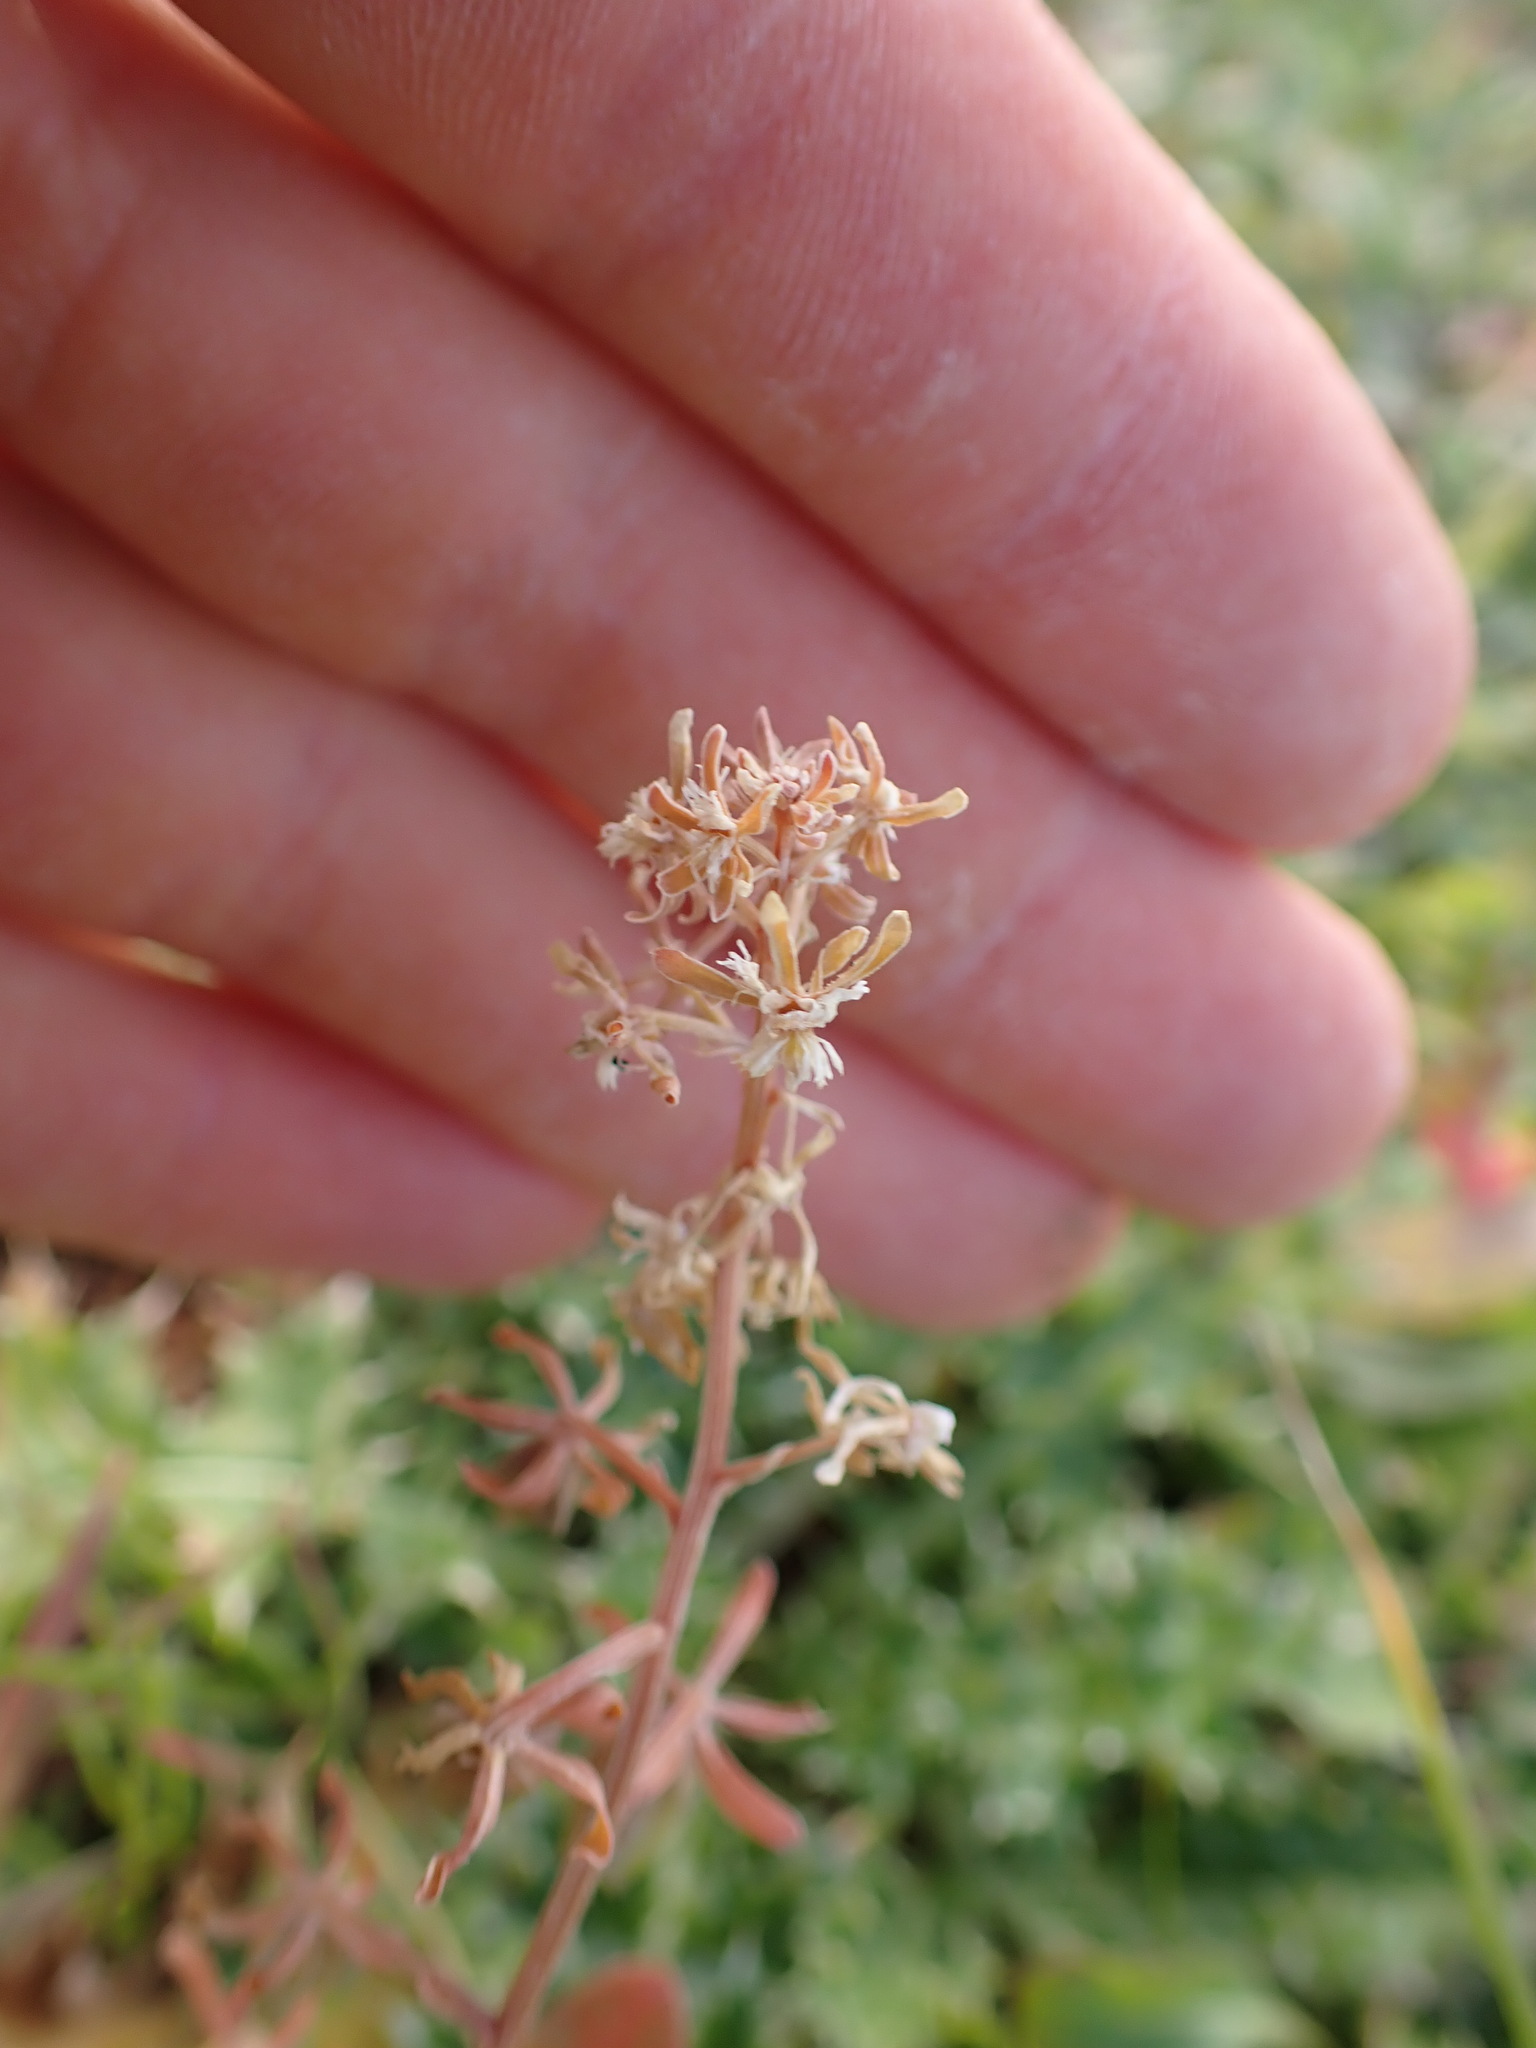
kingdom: Plantae
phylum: Tracheophyta
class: Magnoliopsida
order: Brassicales
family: Resedaceae
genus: Reseda
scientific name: Reseda phyteuma
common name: Corn mignonette
